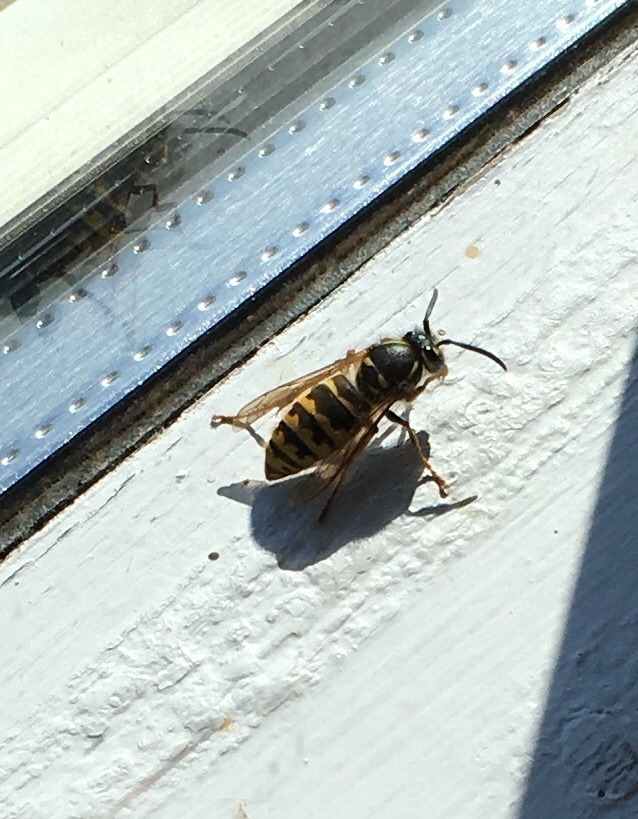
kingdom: Animalia
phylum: Arthropoda
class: Insecta
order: Hymenoptera
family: Vespidae
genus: Vespula
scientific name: Vespula vulgaris
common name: Common wasp
